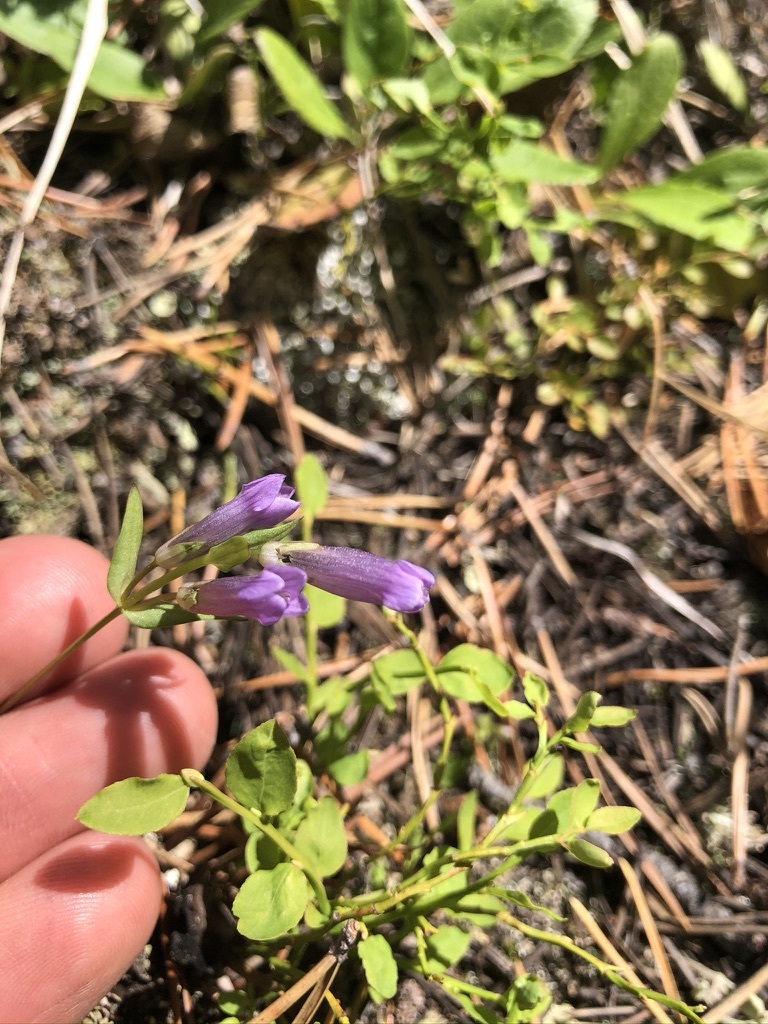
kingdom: Plantae
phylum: Tracheophyta
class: Magnoliopsida
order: Gentianales
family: Gentianaceae
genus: Gentianella
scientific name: Gentianella propinqua
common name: Four-parted dwarf-gentian
